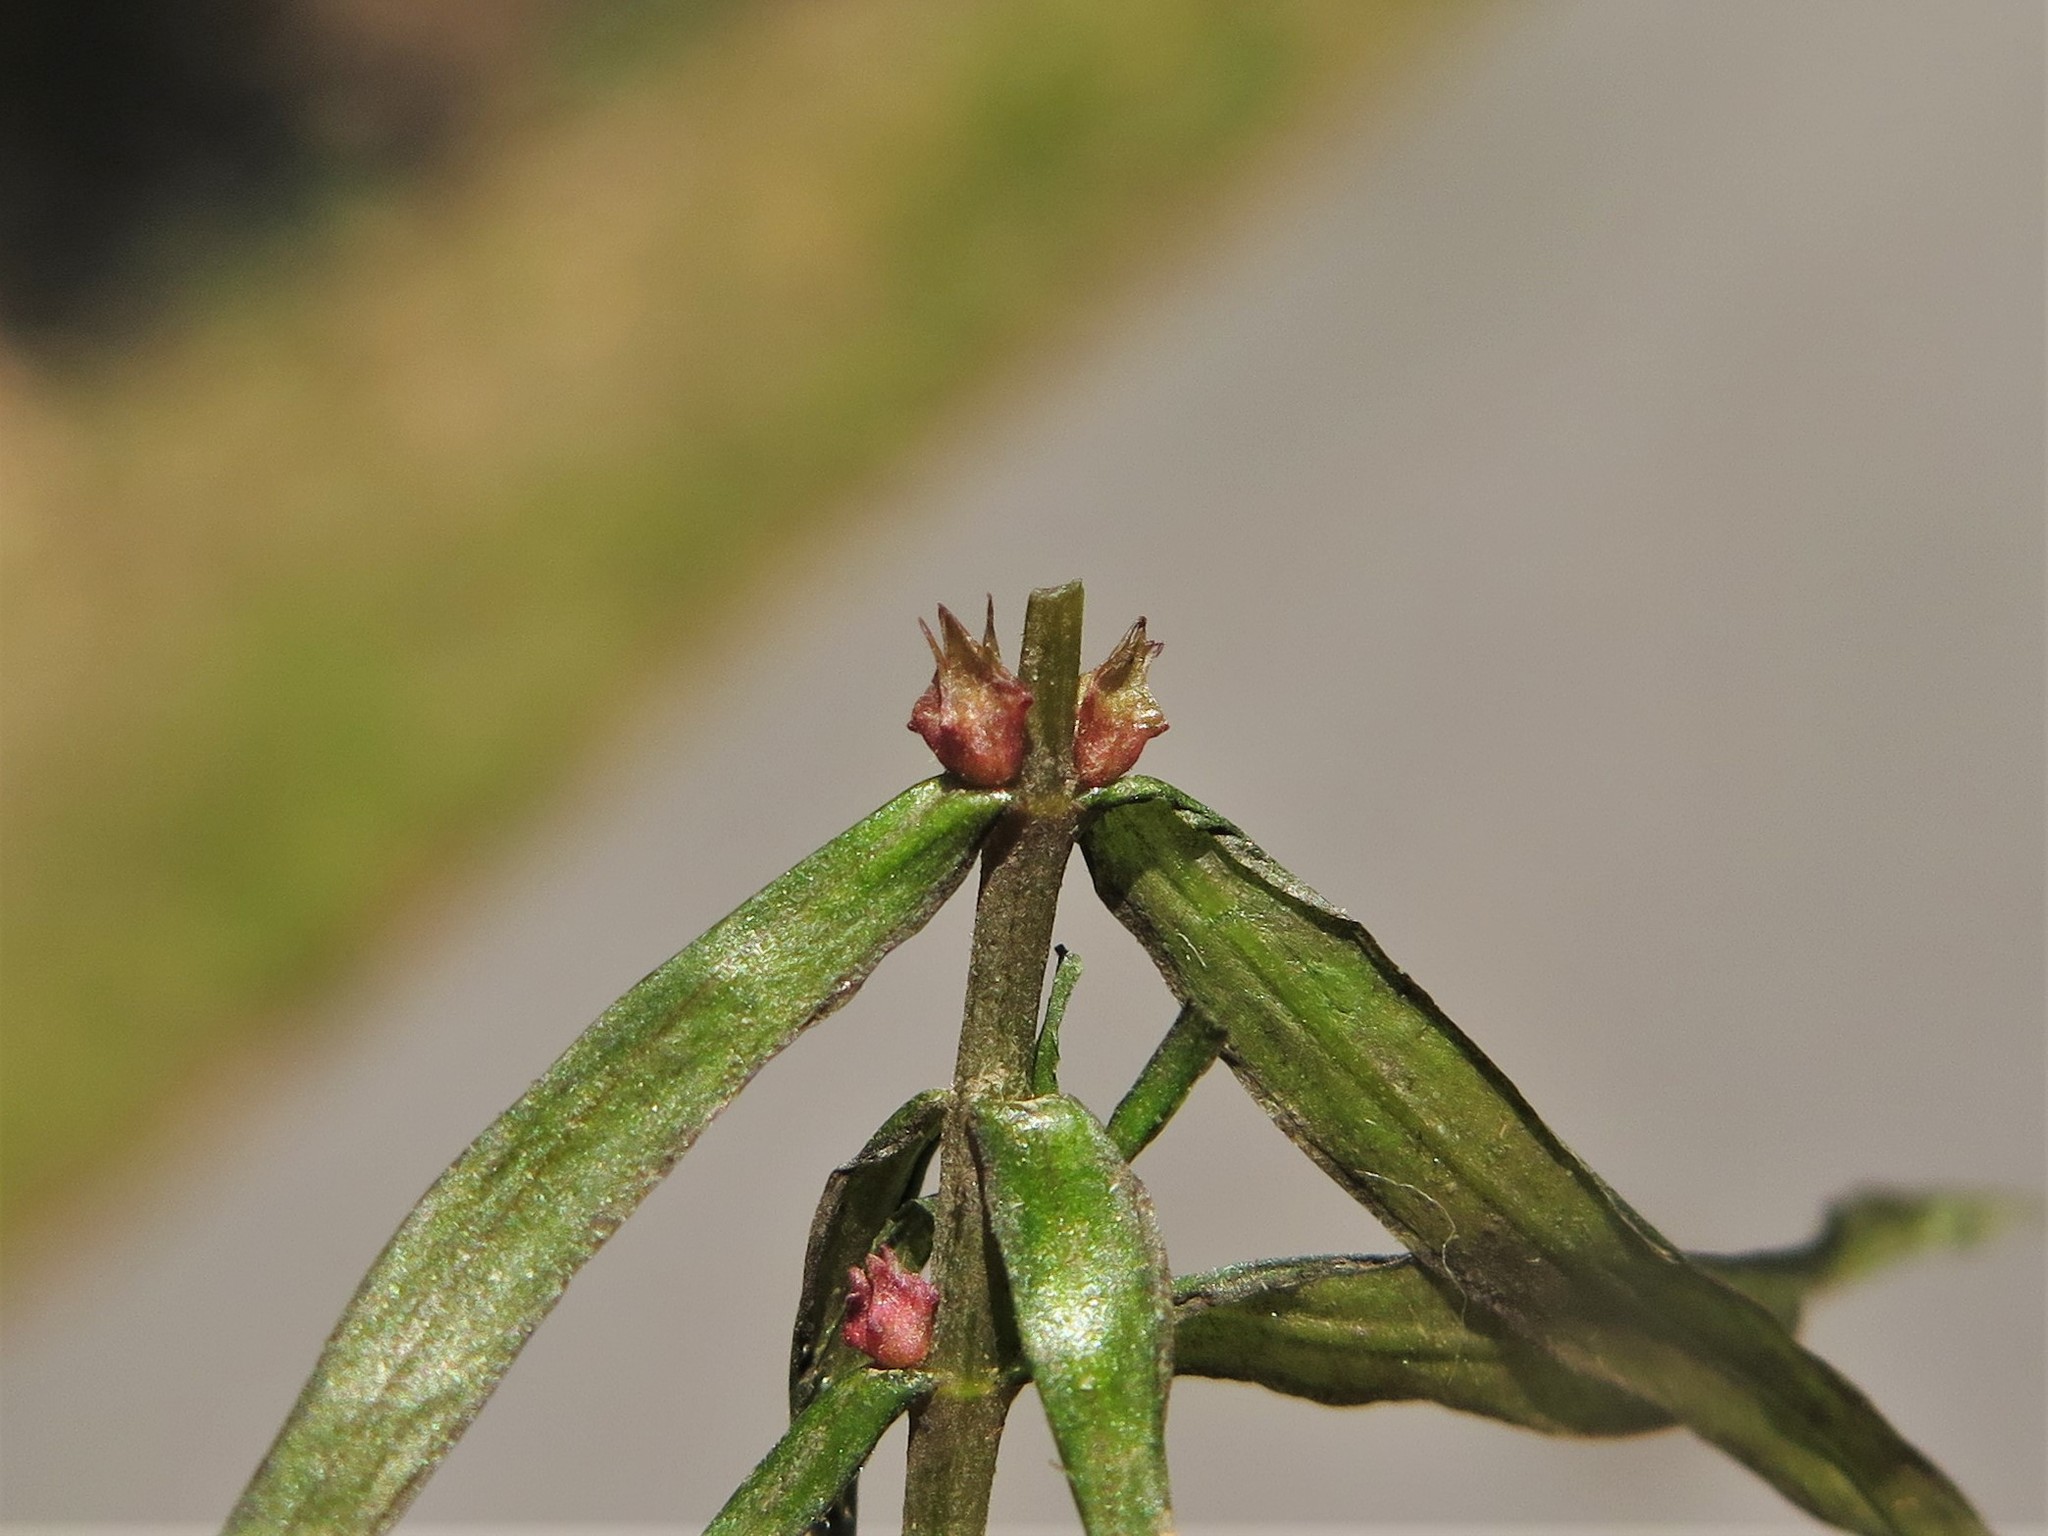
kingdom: Plantae
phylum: Tracheophyta
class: Magnoliopsida
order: Myrtales
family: Lythraceae
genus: Didiplis
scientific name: Didiplis diandra
